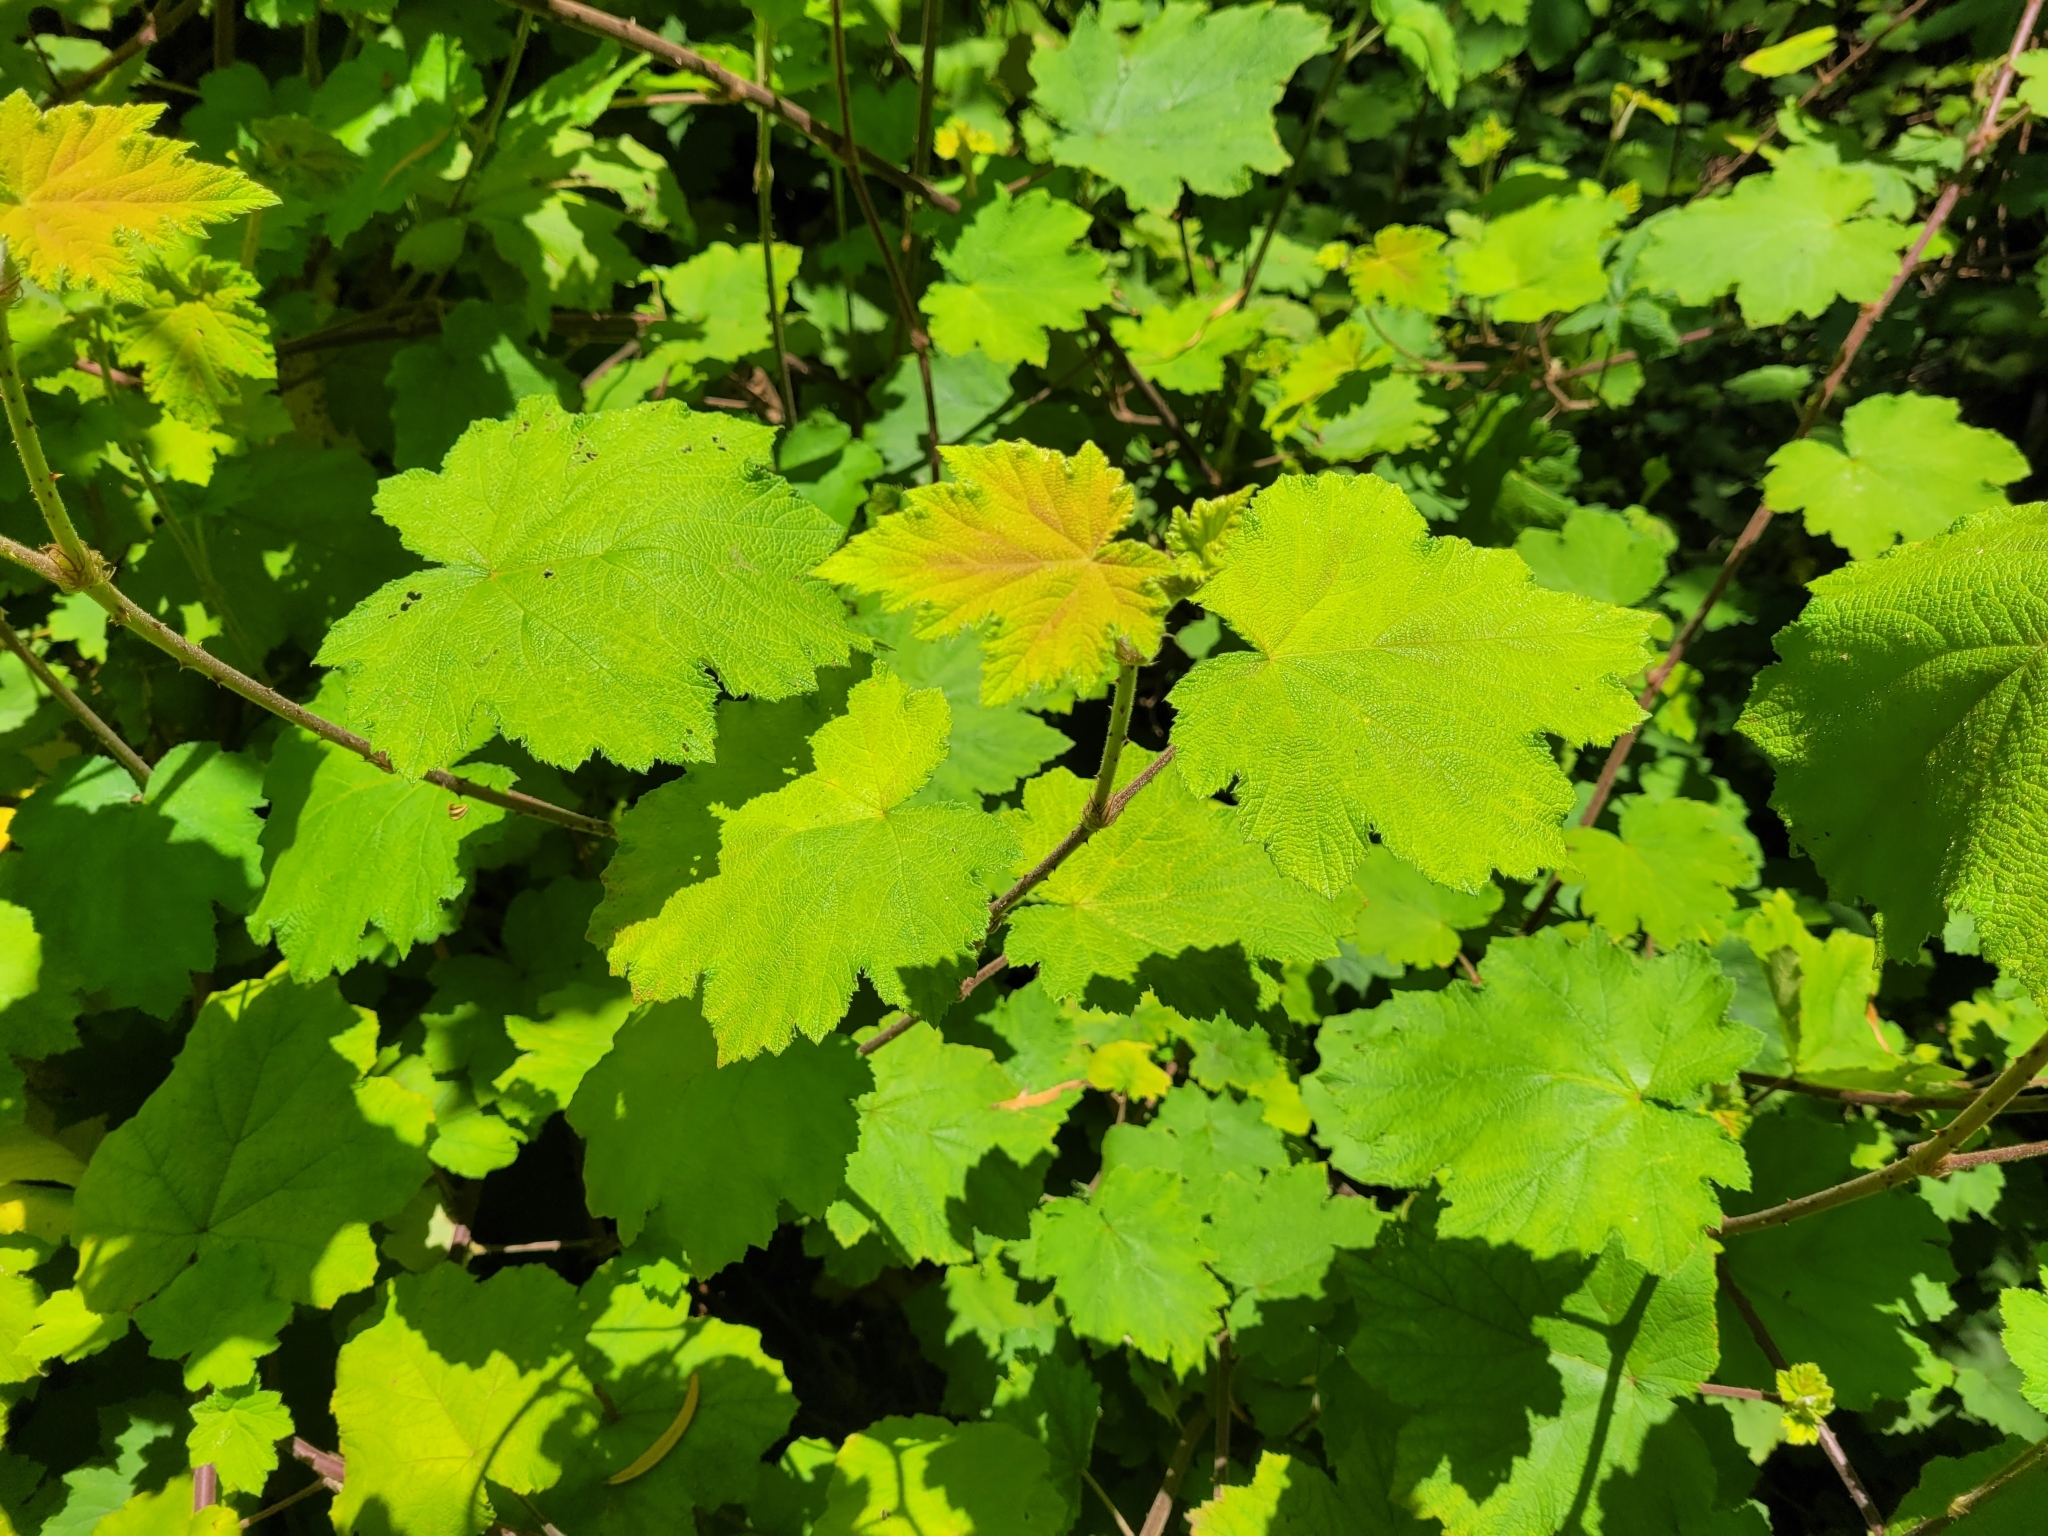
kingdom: Plantae
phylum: Tracheophyta
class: Magnoliopsida
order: Rosales
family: Rosaceae
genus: Rubus
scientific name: Rubus alceifolius
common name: Giant bramble
